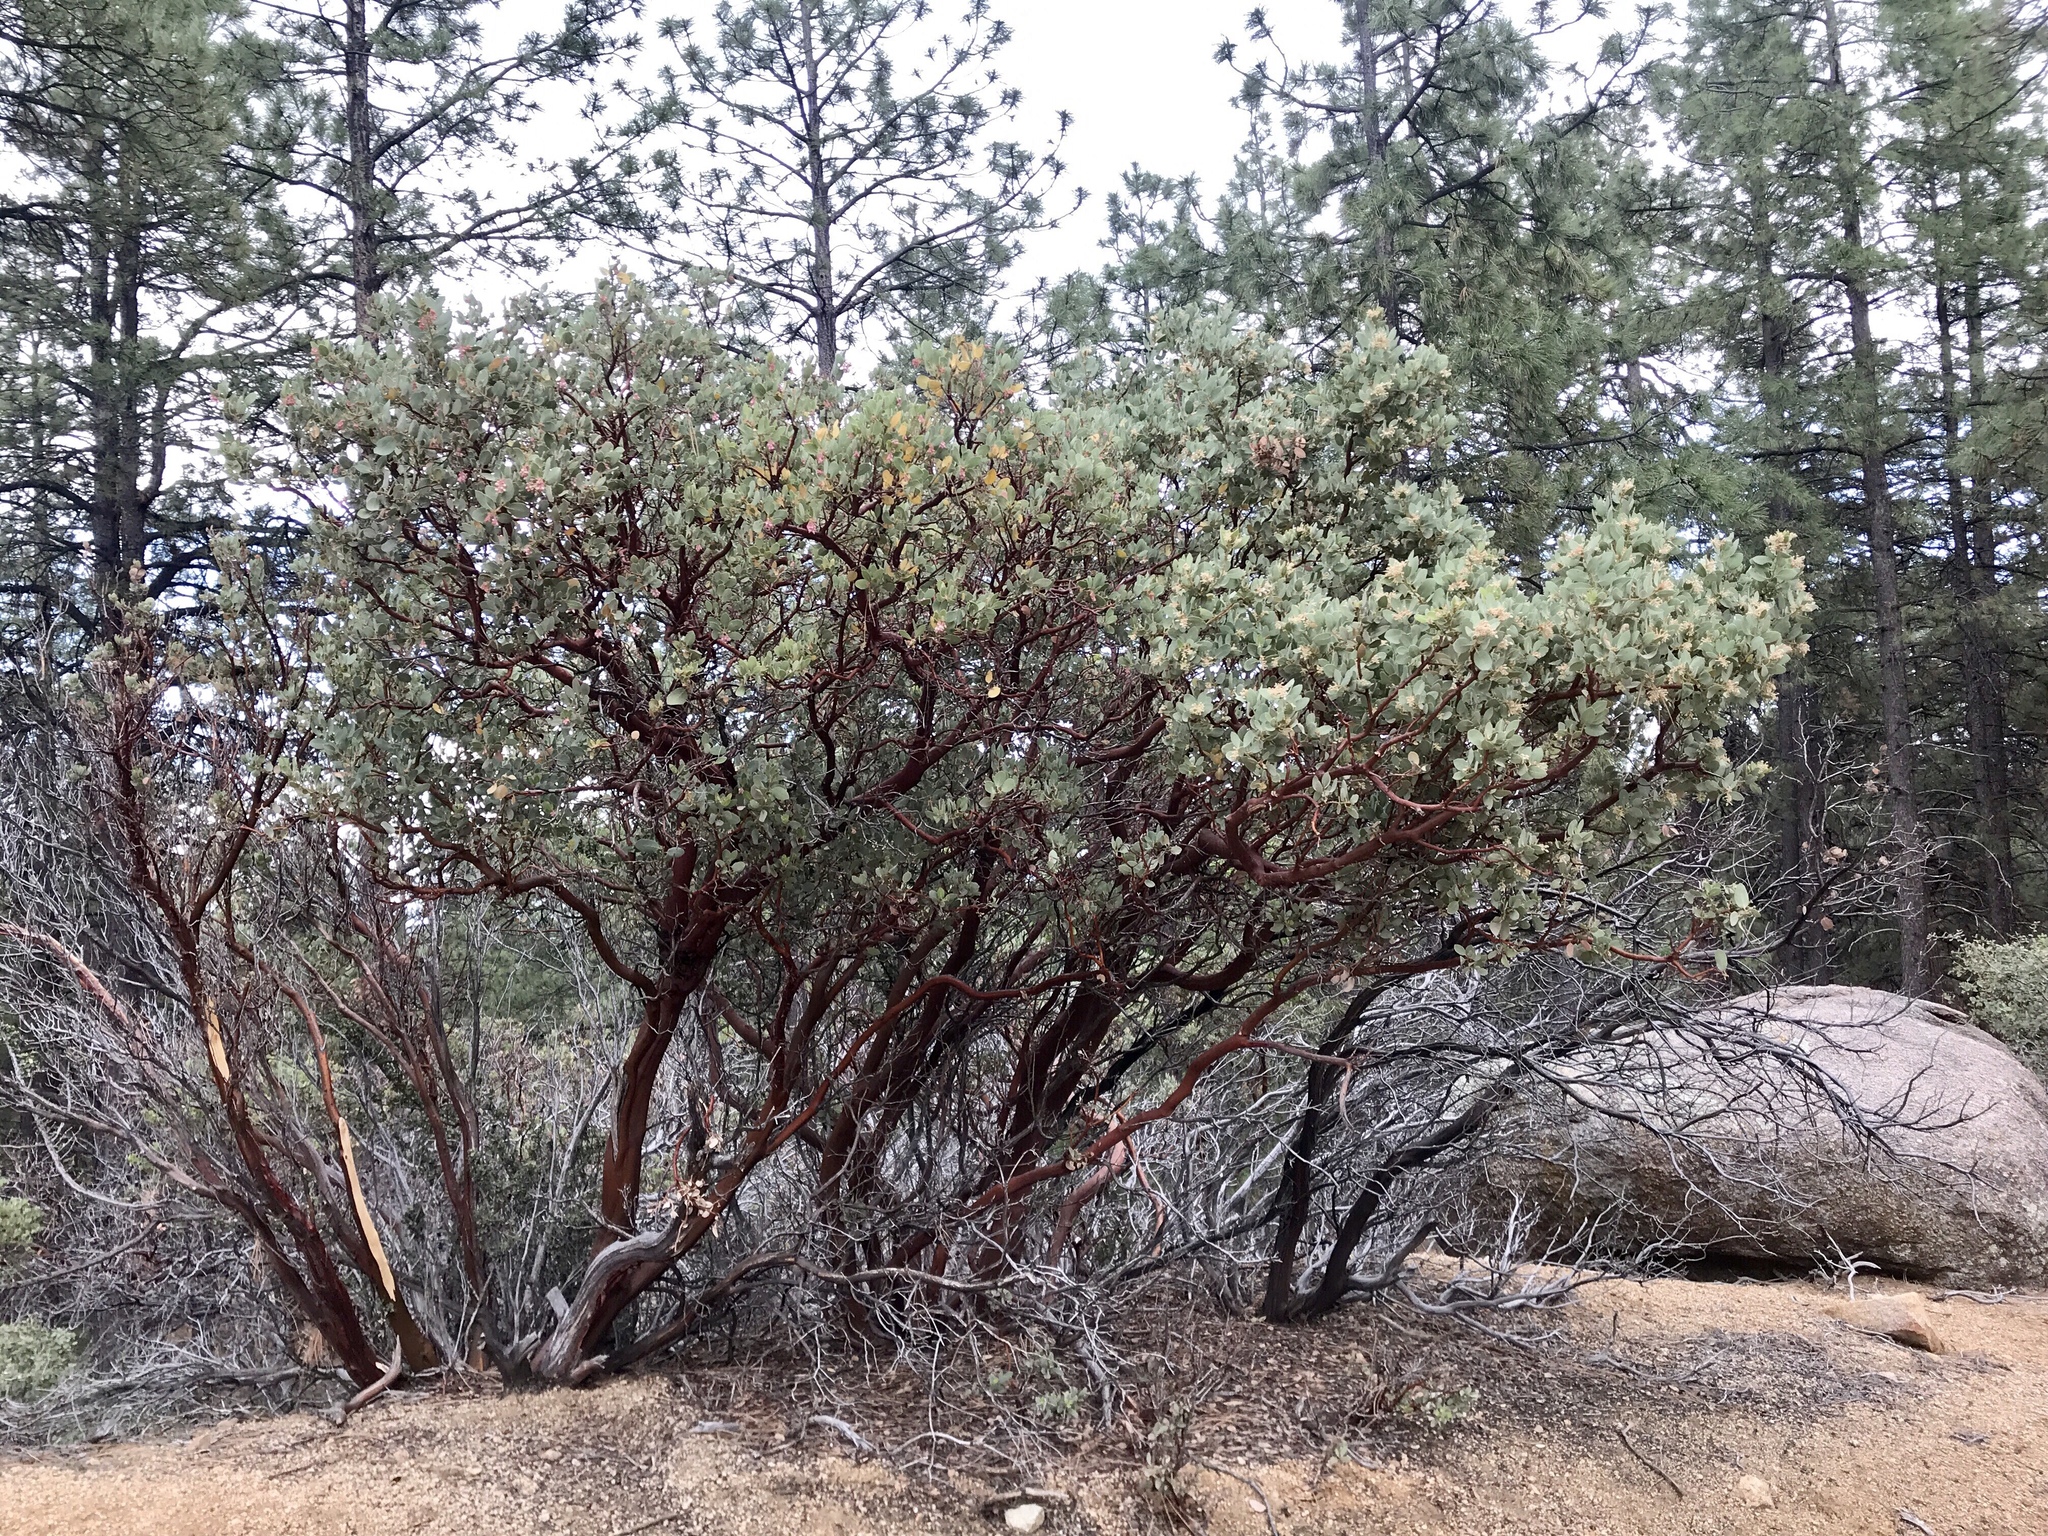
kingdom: Plantae
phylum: Tracheophyta
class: Magnoliopsida
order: Ericales
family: Ericaceae
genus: Arctostaphylos
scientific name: Arctostaphylos pringlei
